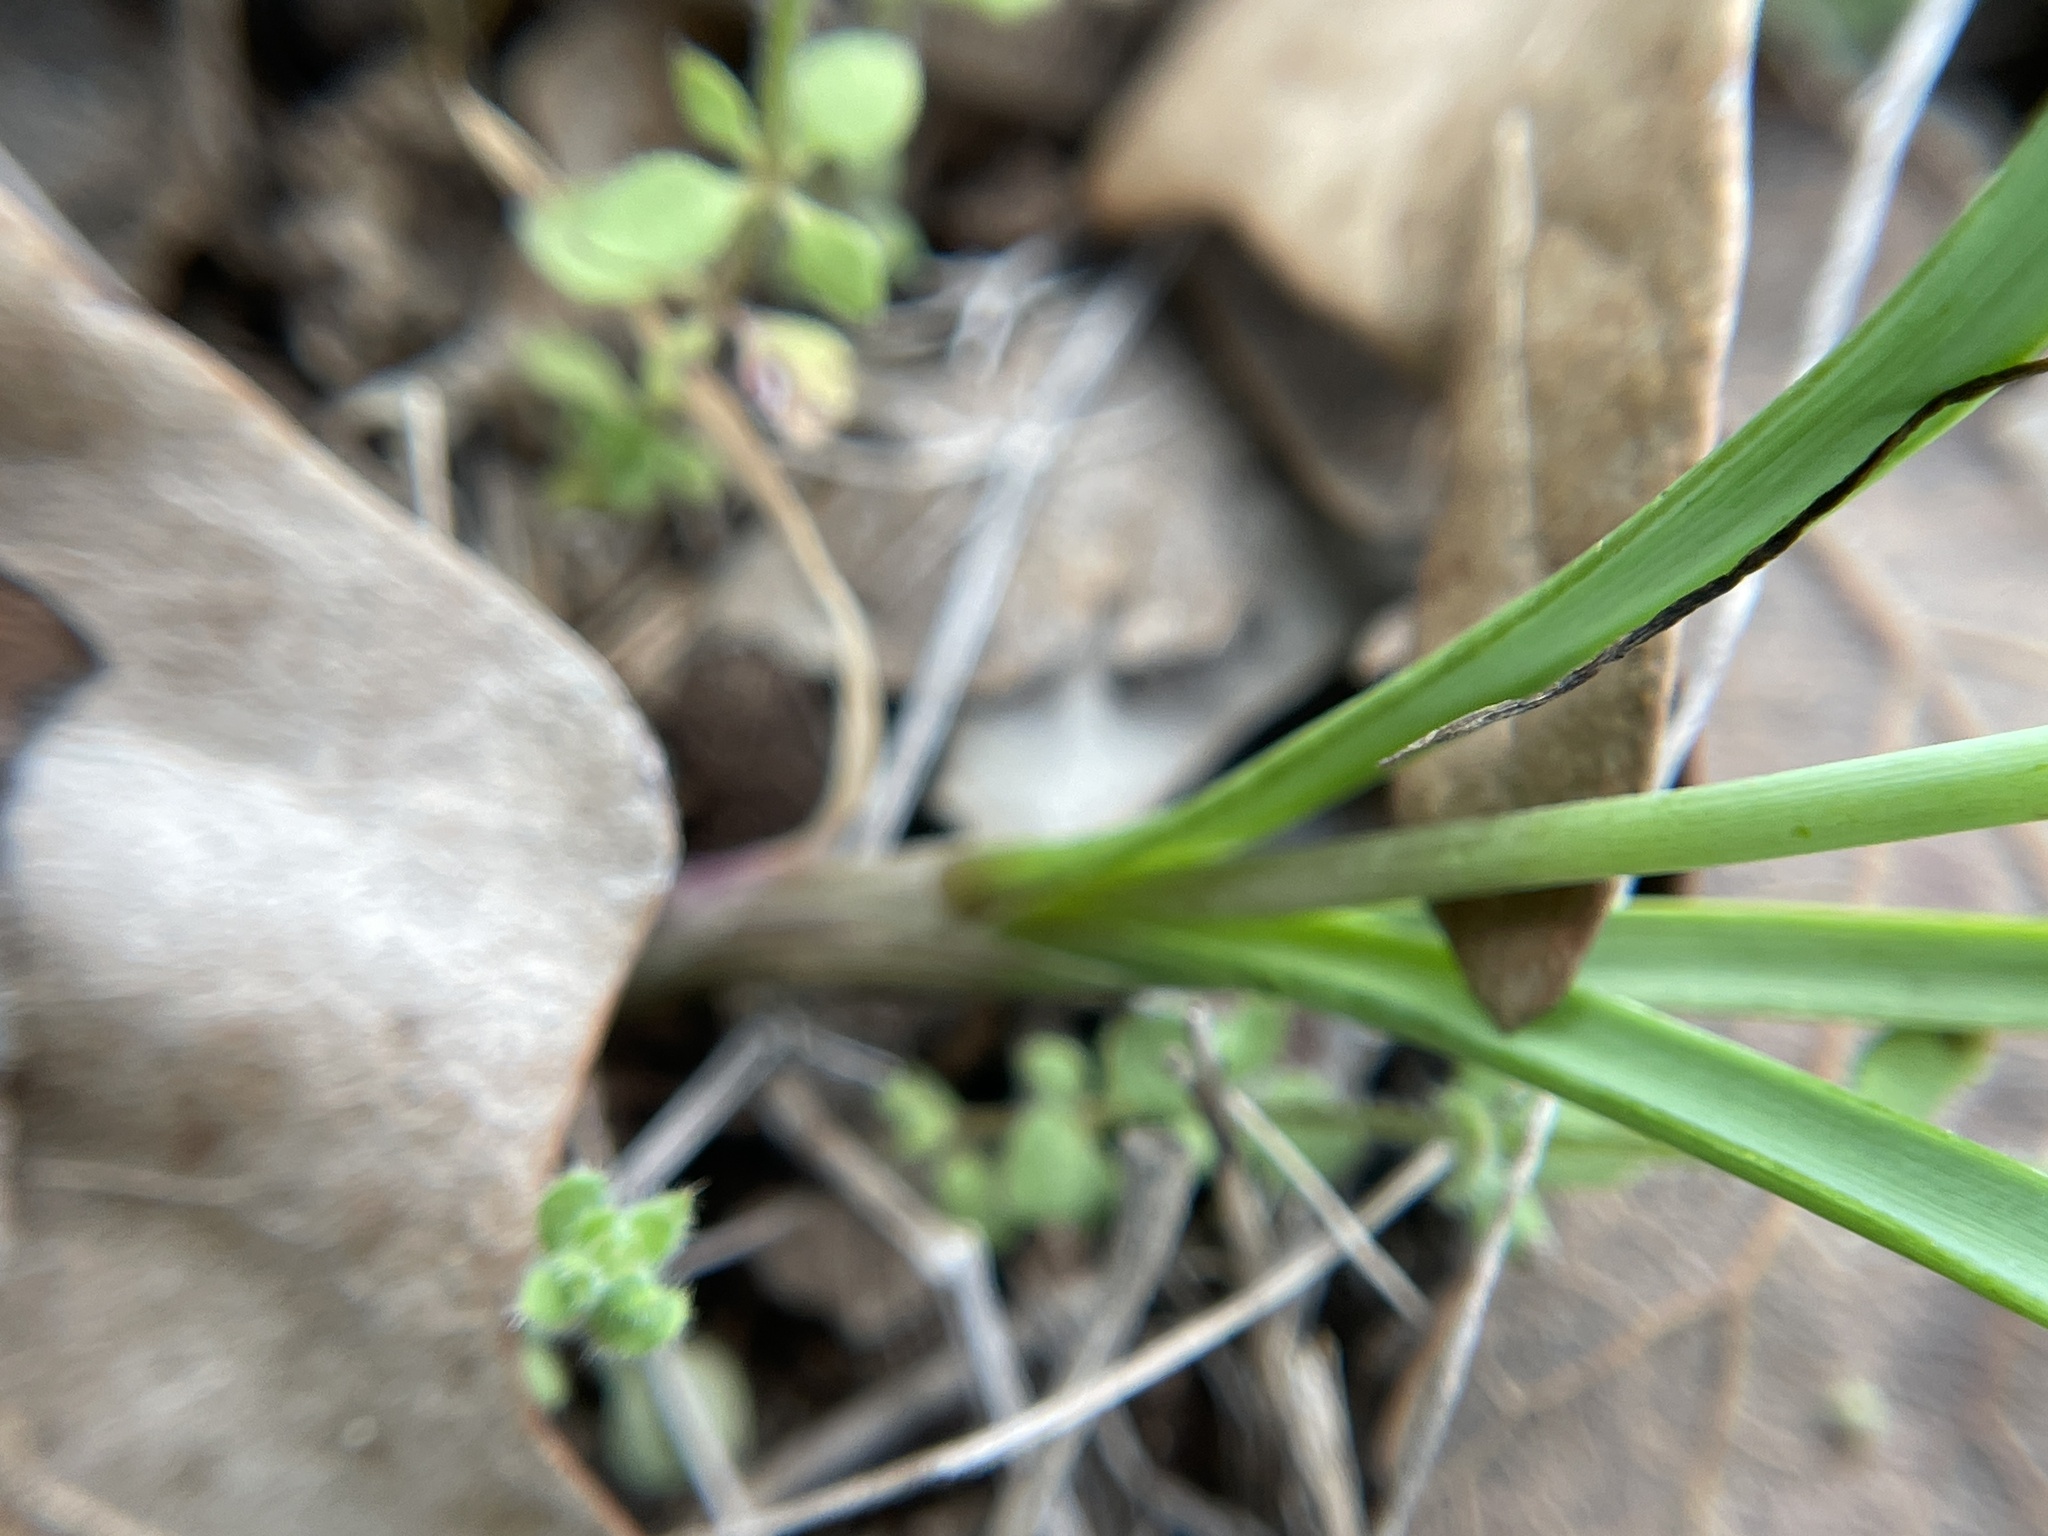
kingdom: Plantae
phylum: Tracheophyta
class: Liliopsida
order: Asparagales
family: Amaryllidaceae
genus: Allium
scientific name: Allium drummondii
